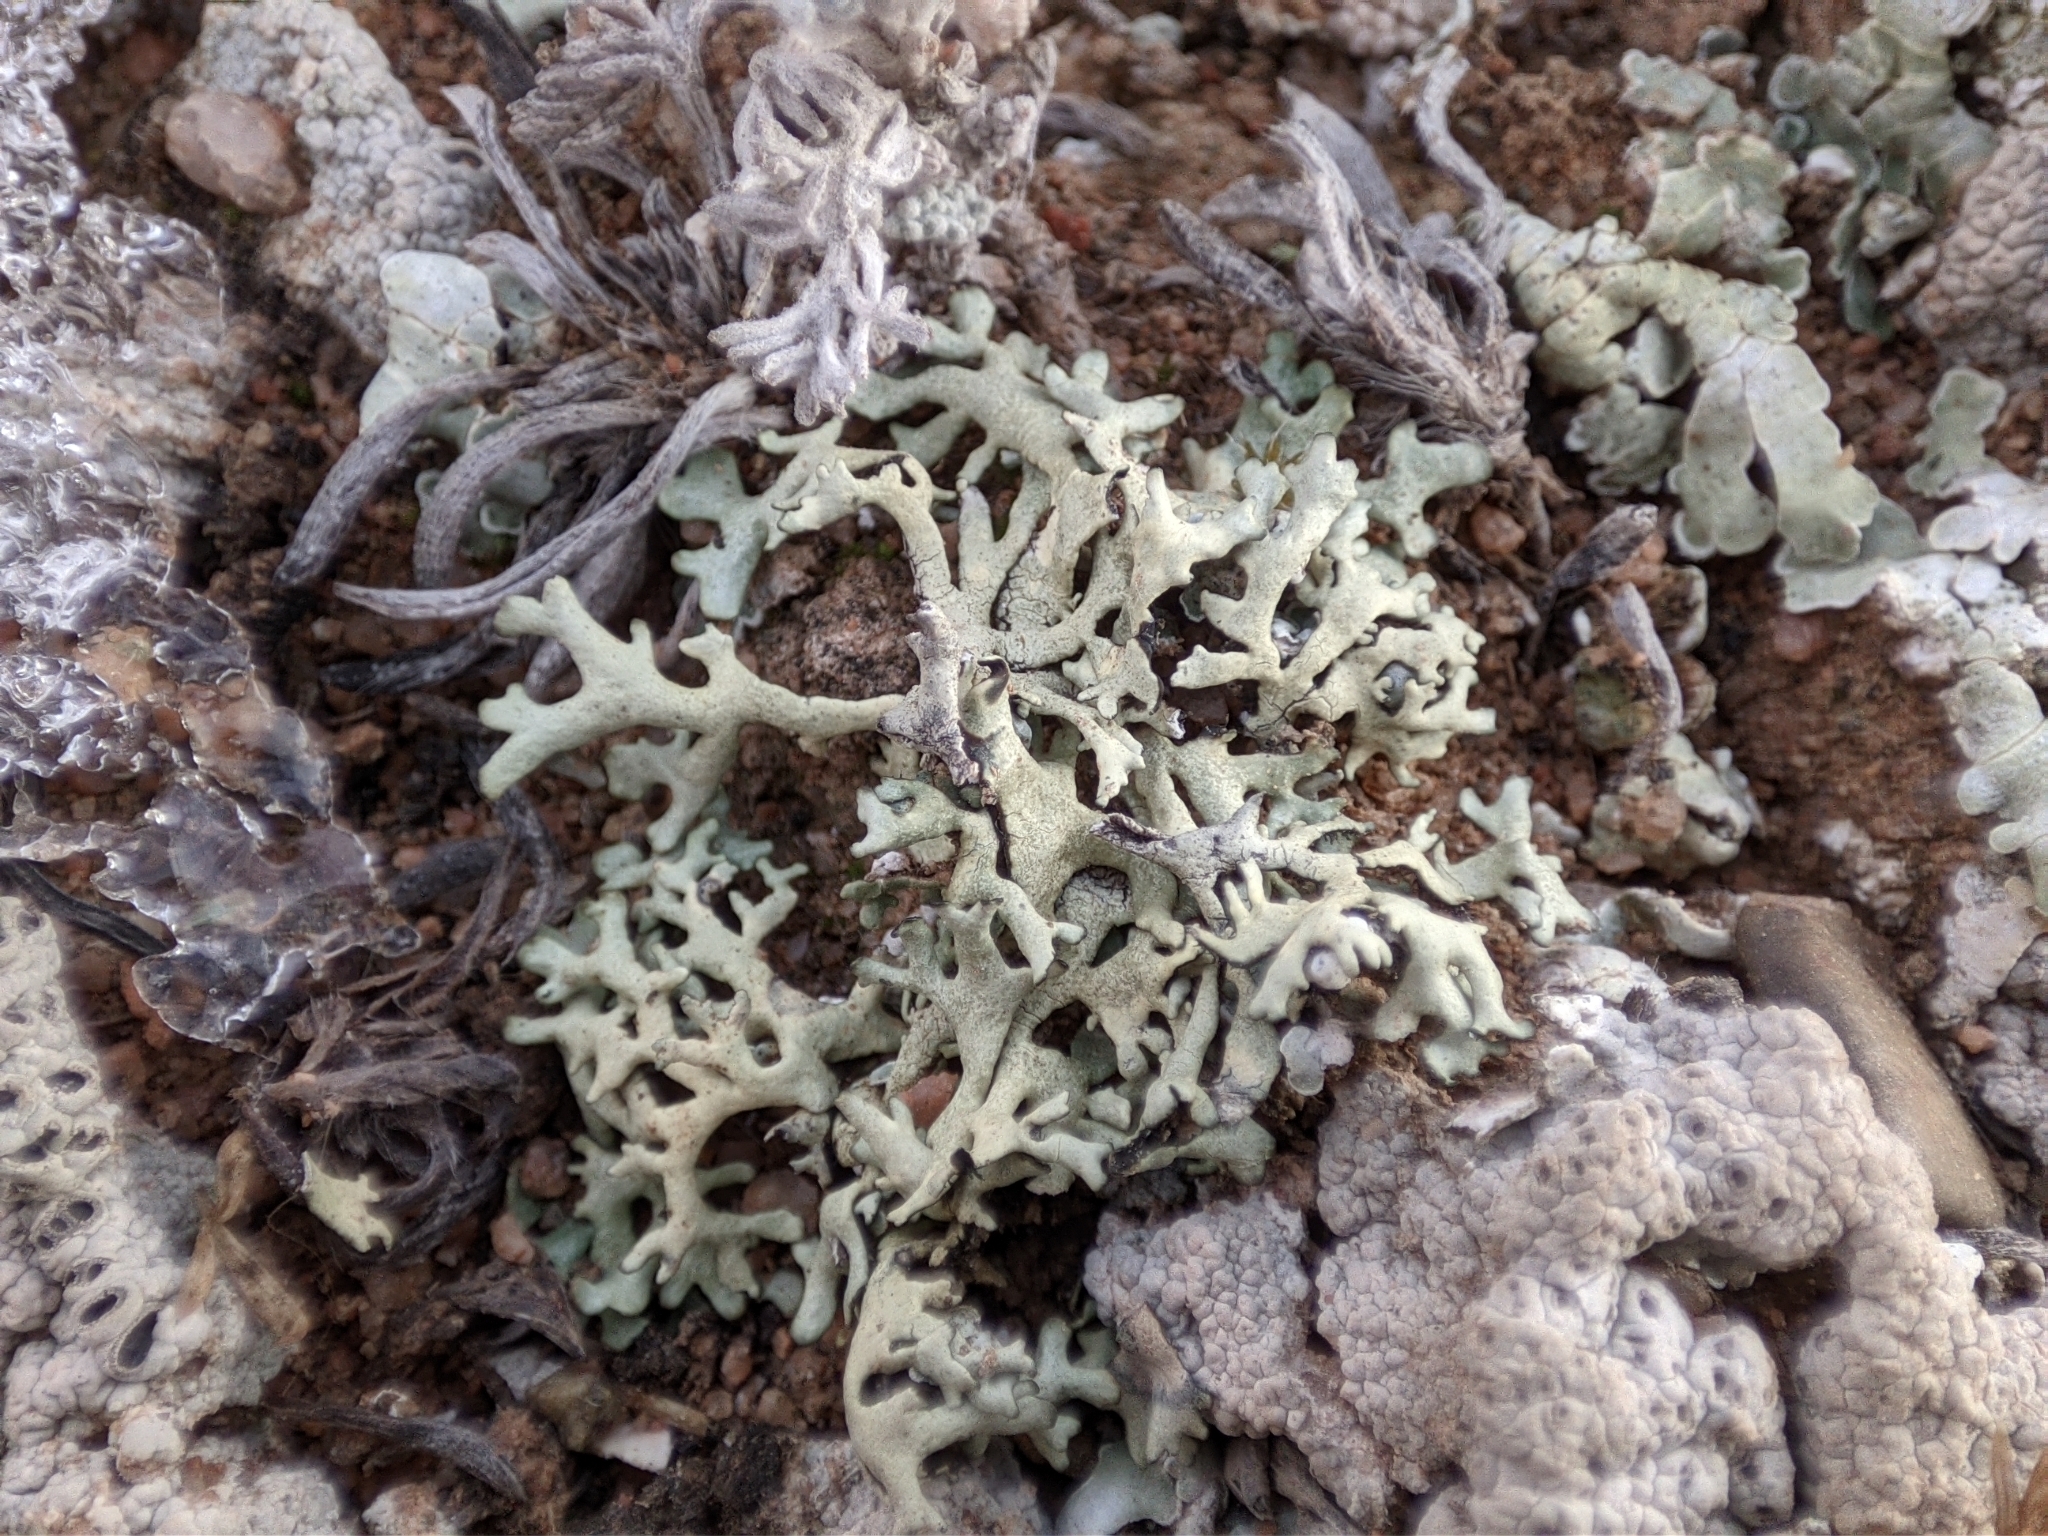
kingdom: Fungi
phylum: Ascomycota
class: Lecanoromycetes
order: Lecanorales
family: Parmeliaceae
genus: Xanthoparmelia
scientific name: Xanthoparmelia vagans
